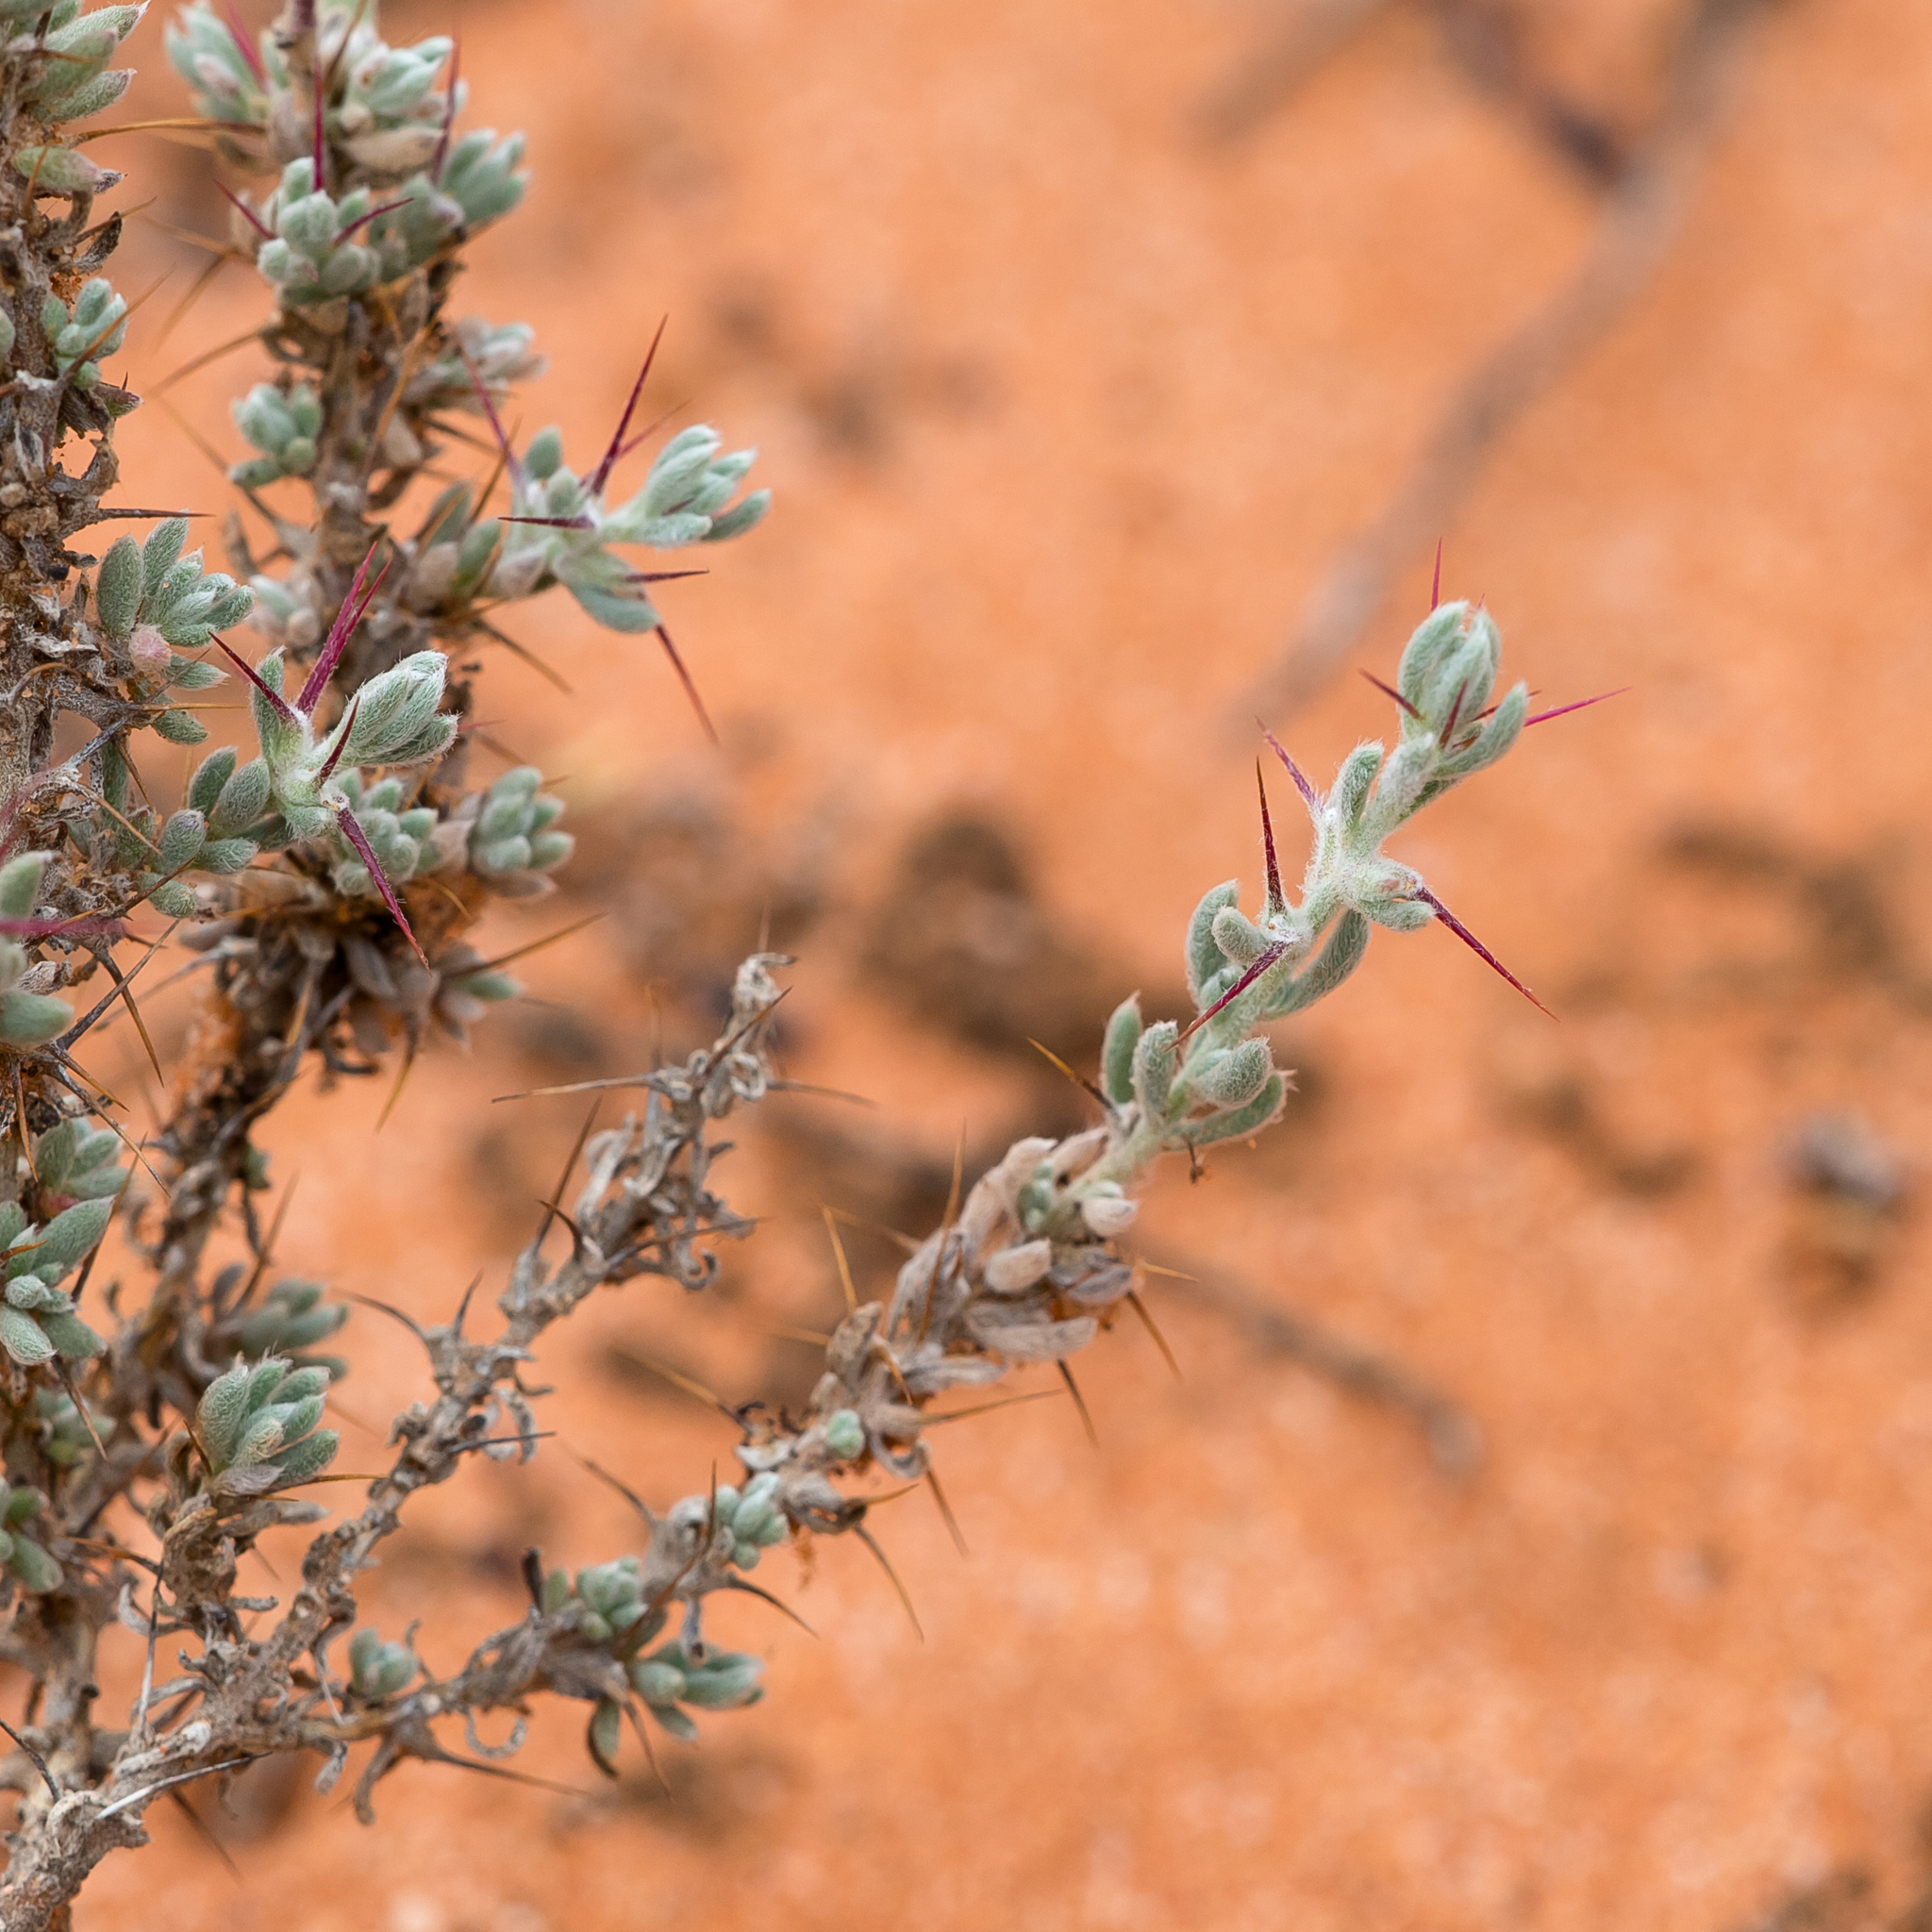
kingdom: Plantae
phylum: Tracheophyta
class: Magnoliopsida
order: Caryophyllales
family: Amaranthaceae
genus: Sclerolaena
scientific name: Sclerolaena obliquicuspis
